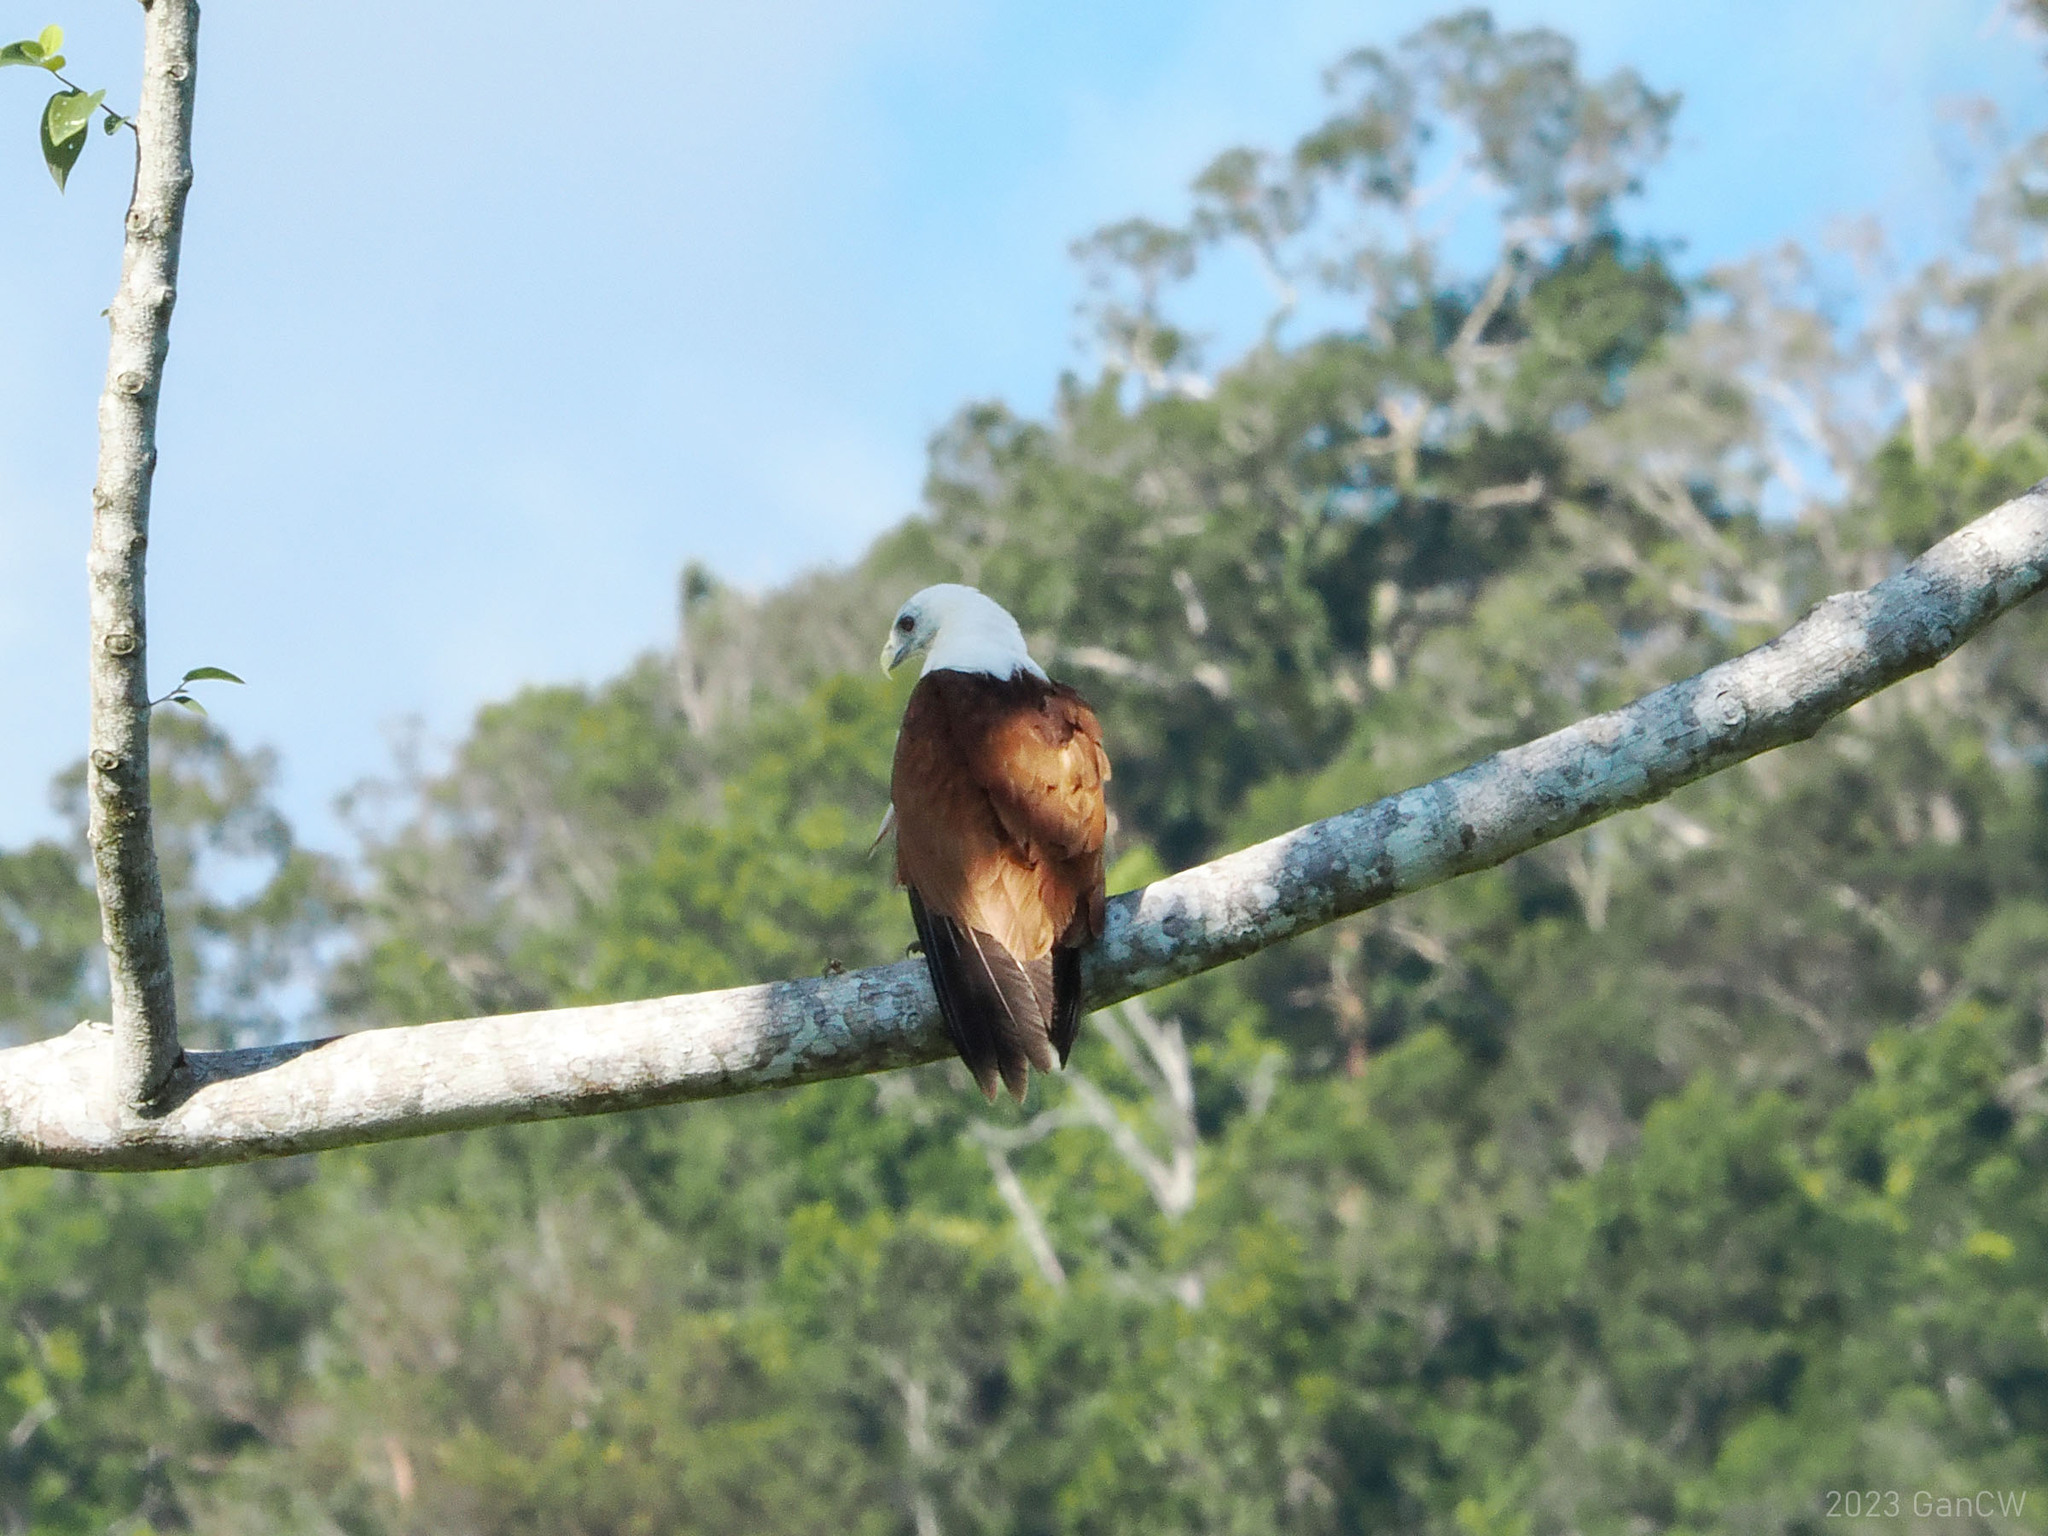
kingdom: Animalia
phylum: Chordata
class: Aves
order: Accipitriformes
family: Accipitridae
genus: Haliastur
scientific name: Haliastur indus
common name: Brahminy kite
